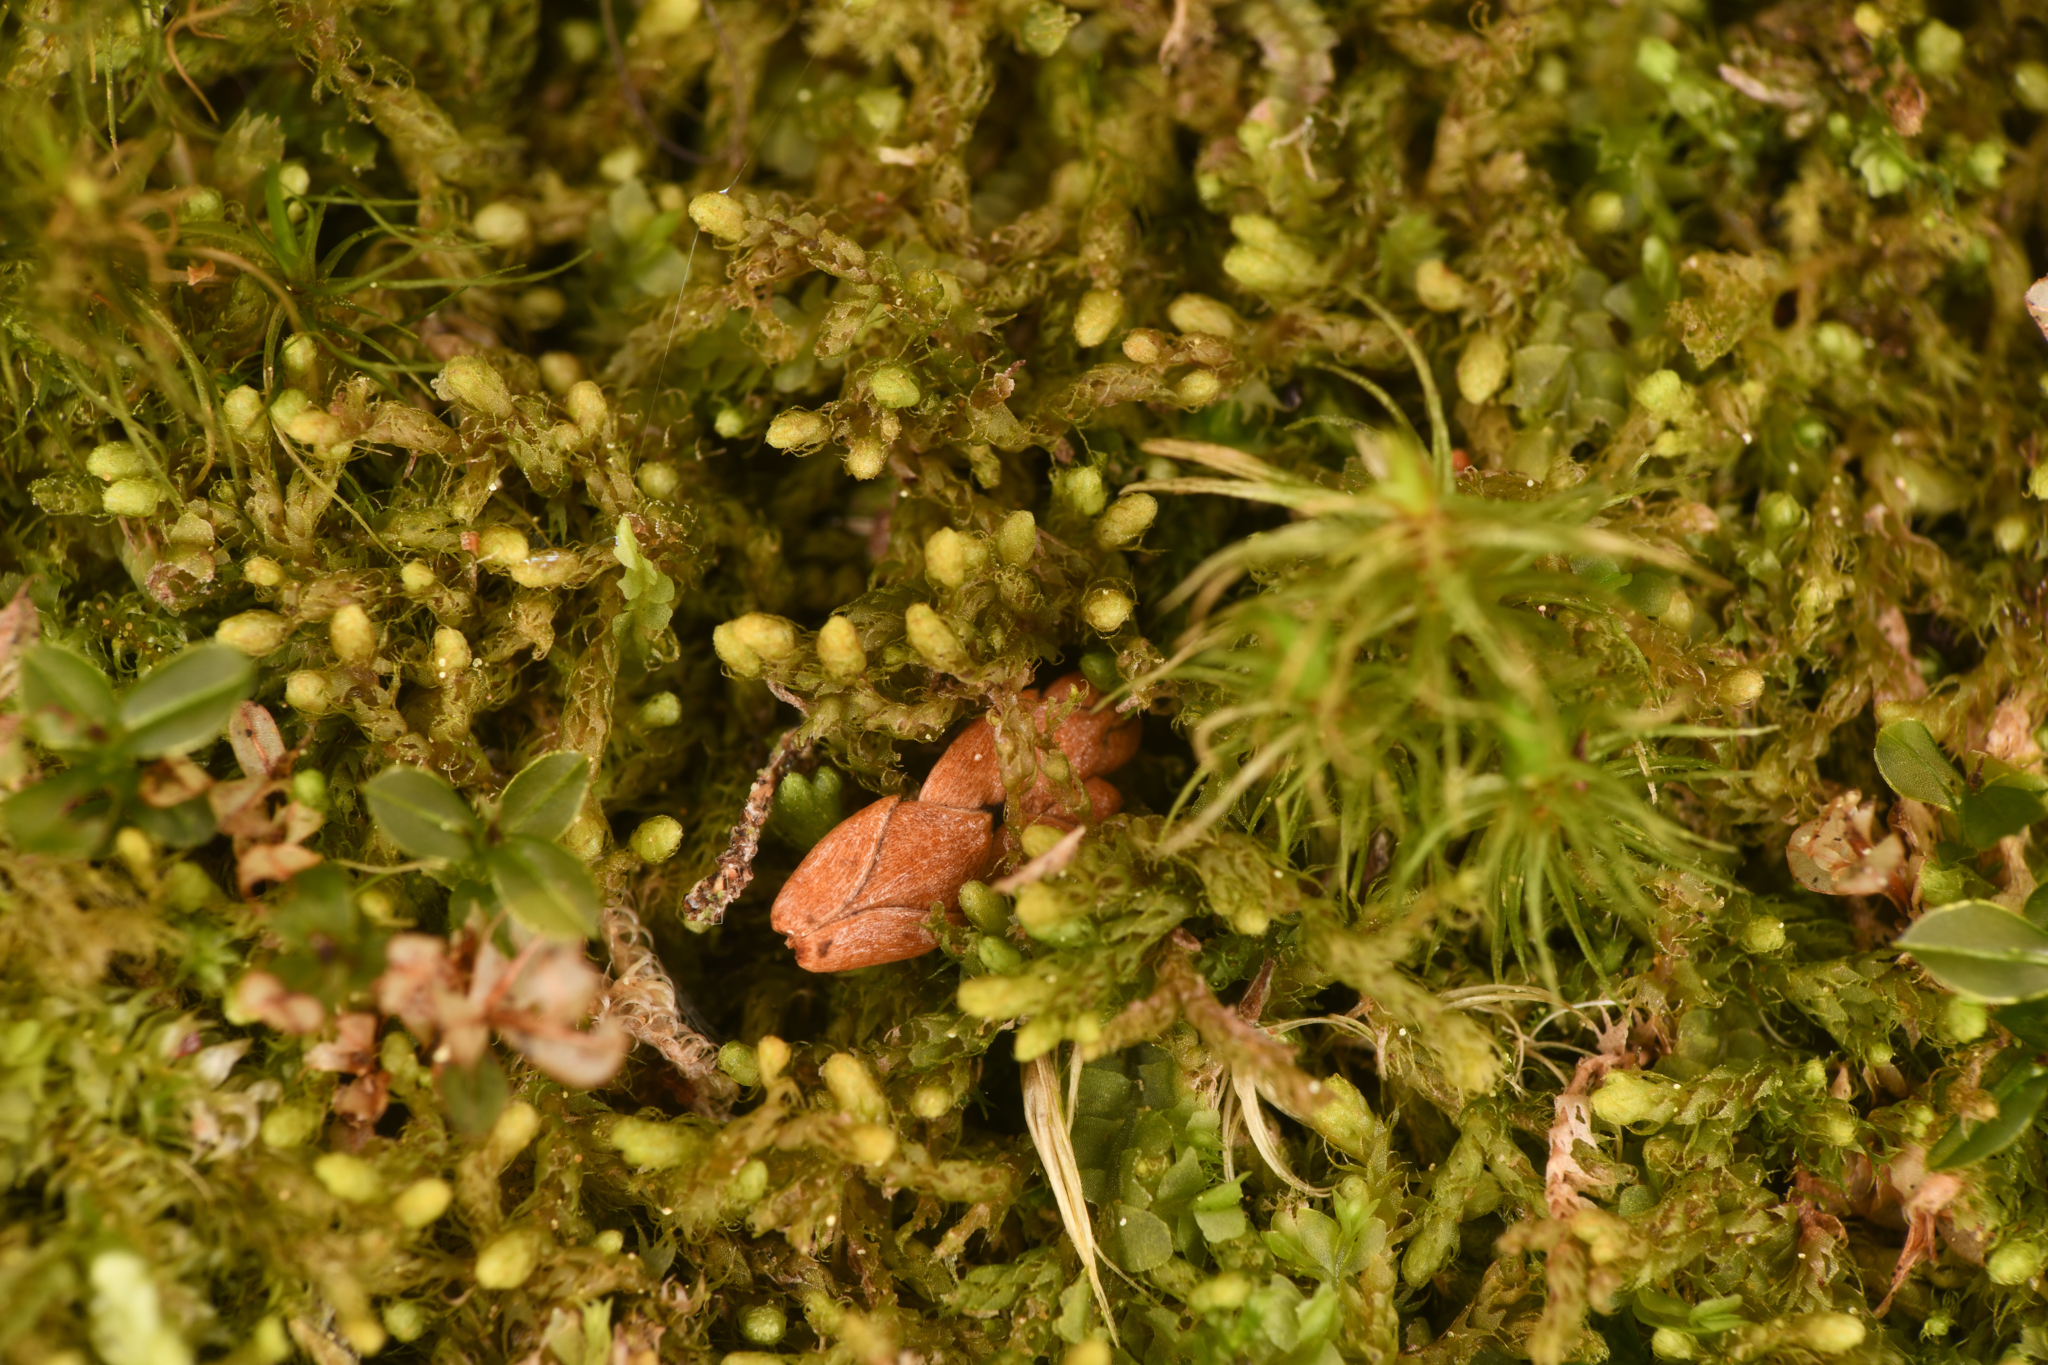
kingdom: Plantae
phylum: Marchantiophyta
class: Jungermanniopsida
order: Ptilidiales
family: Ptilidiaceae
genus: Ptilidium
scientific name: Ptilidium californicum
